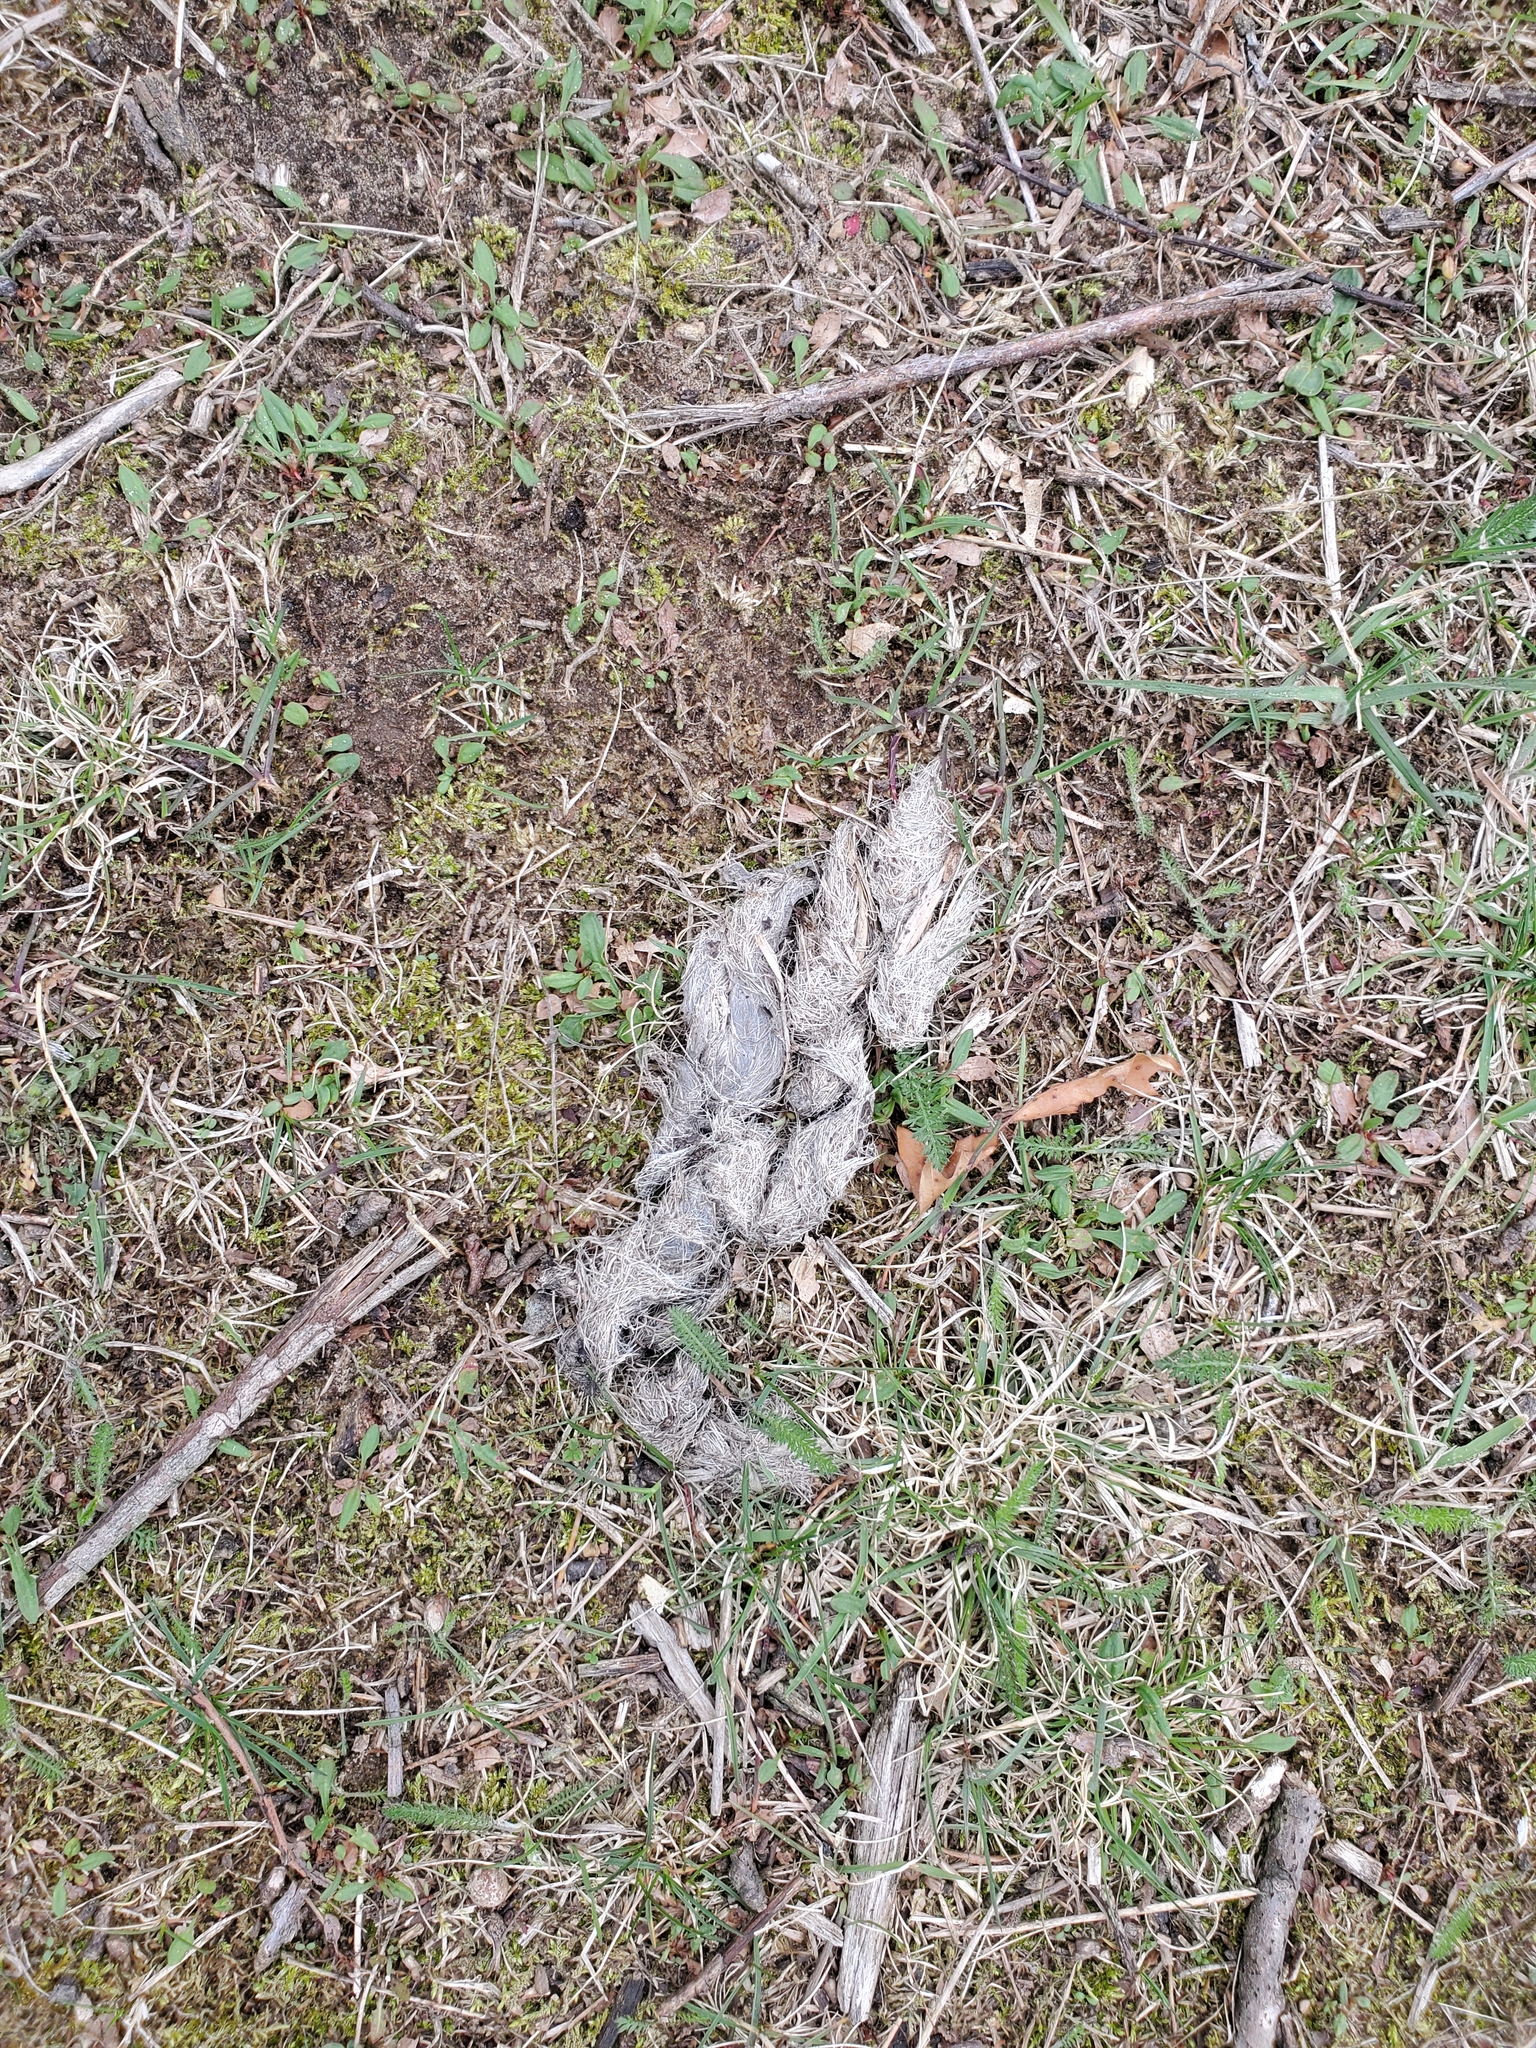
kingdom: Animalia
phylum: Chordata
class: Mammalia
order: Carnivora
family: Canidae
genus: Canis
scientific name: Canis latrans
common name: Coyote
